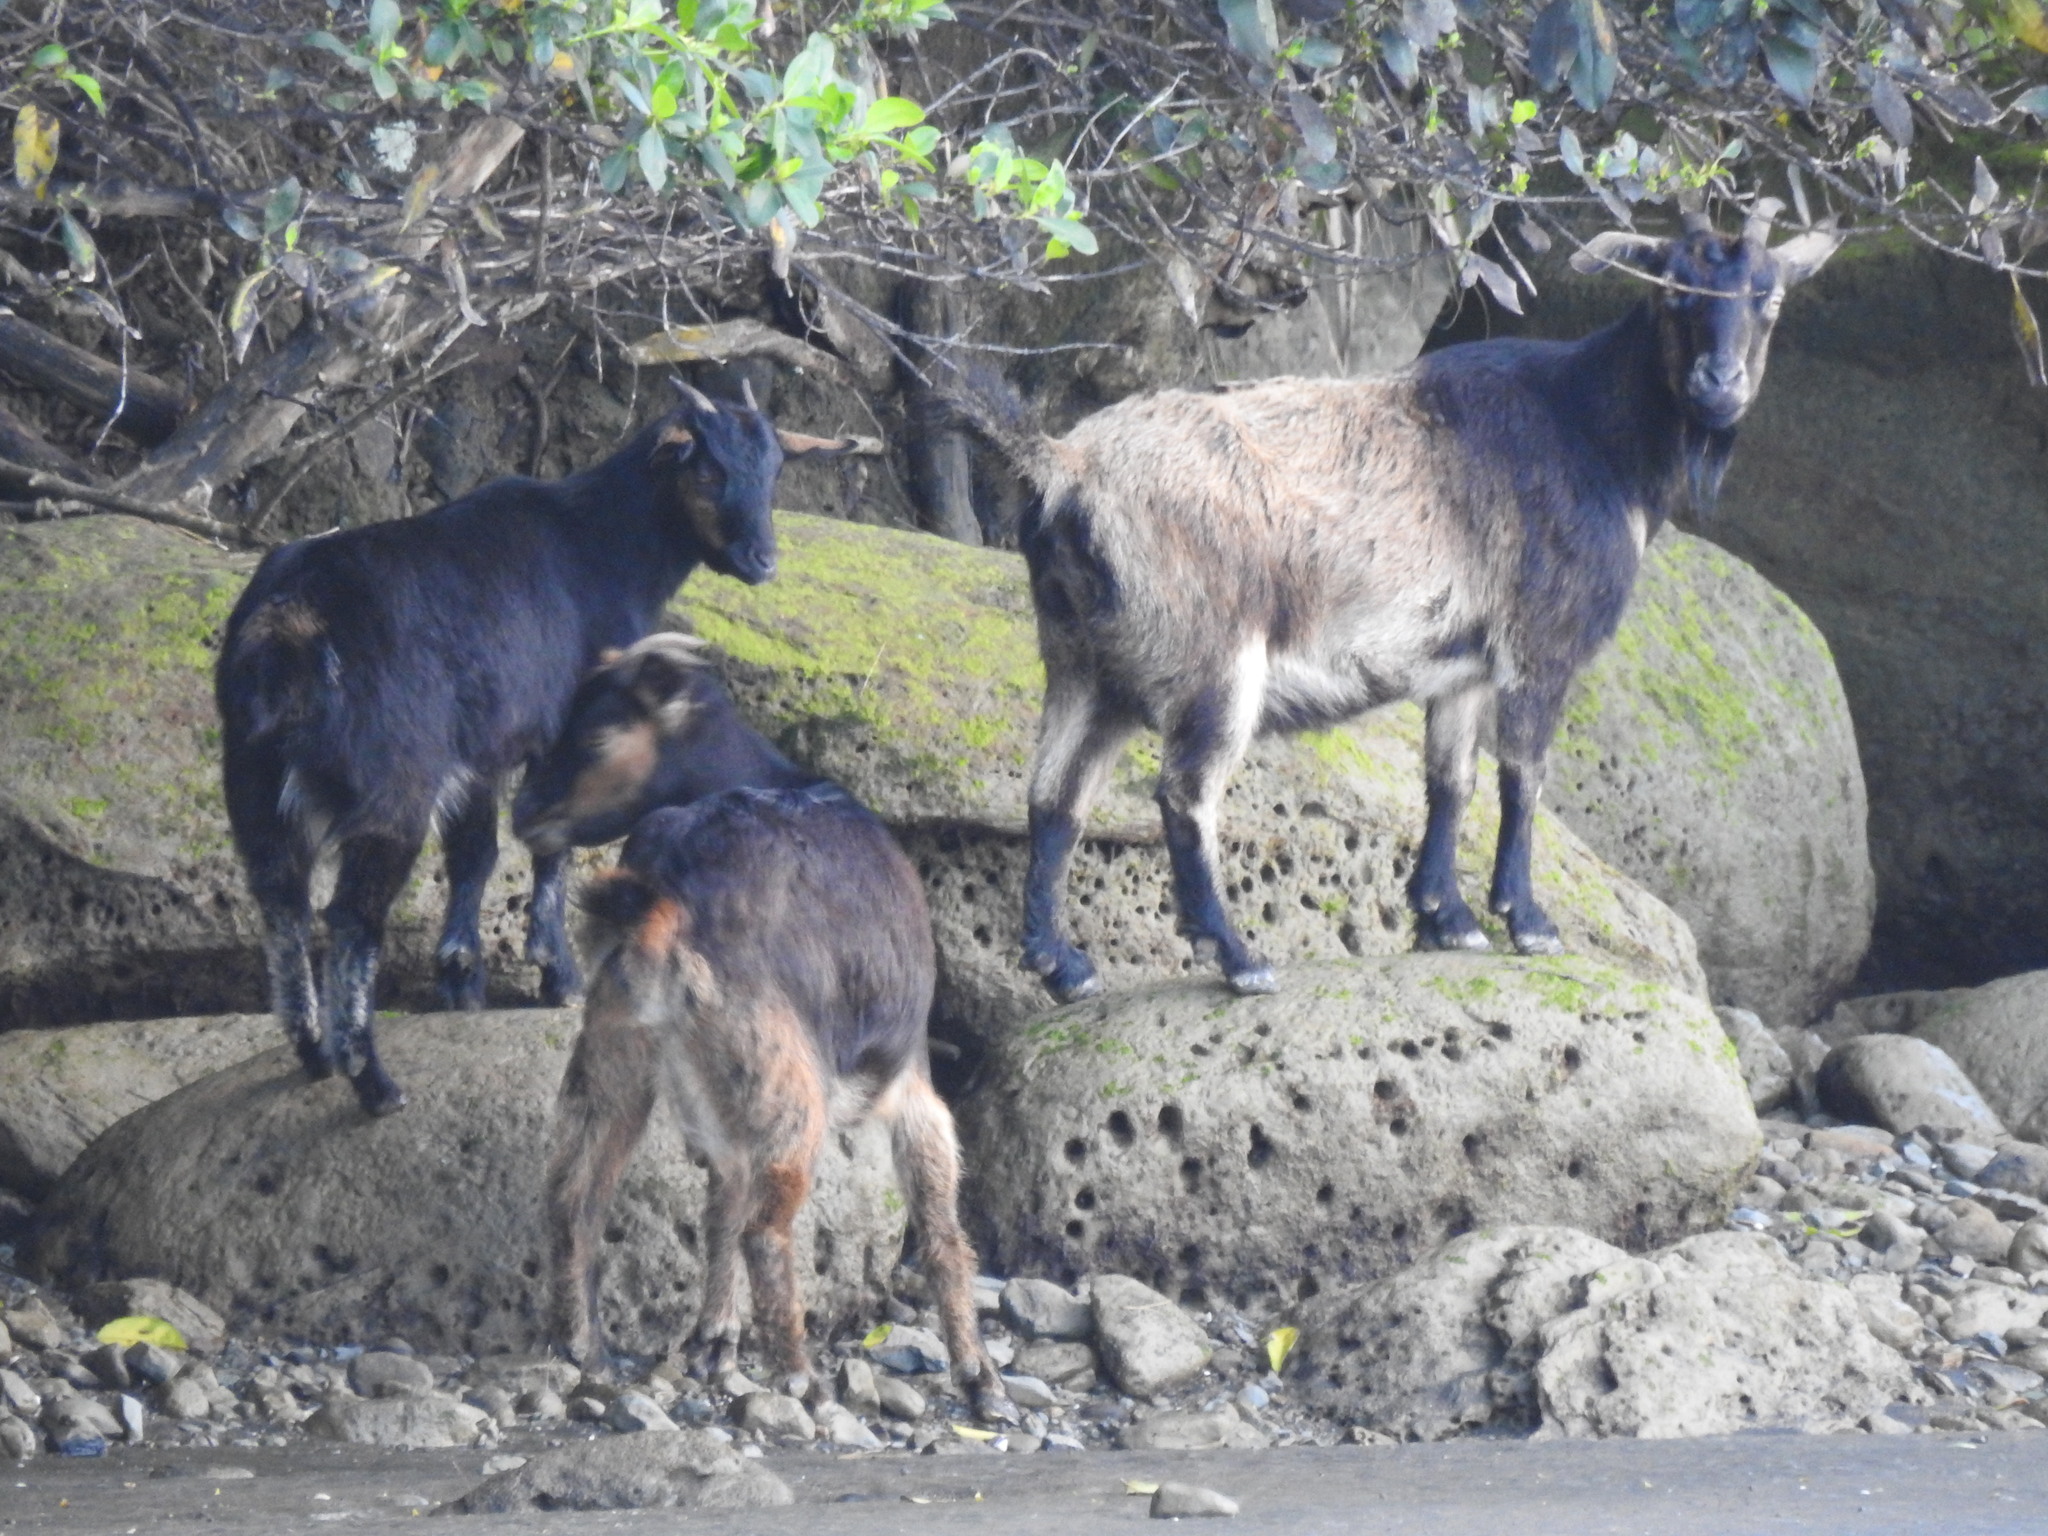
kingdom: Animalia
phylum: Chordata
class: Mammalia
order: Artiodactyla
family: Bovidae
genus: Capra
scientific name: Capra hircus
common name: Domestic goat
